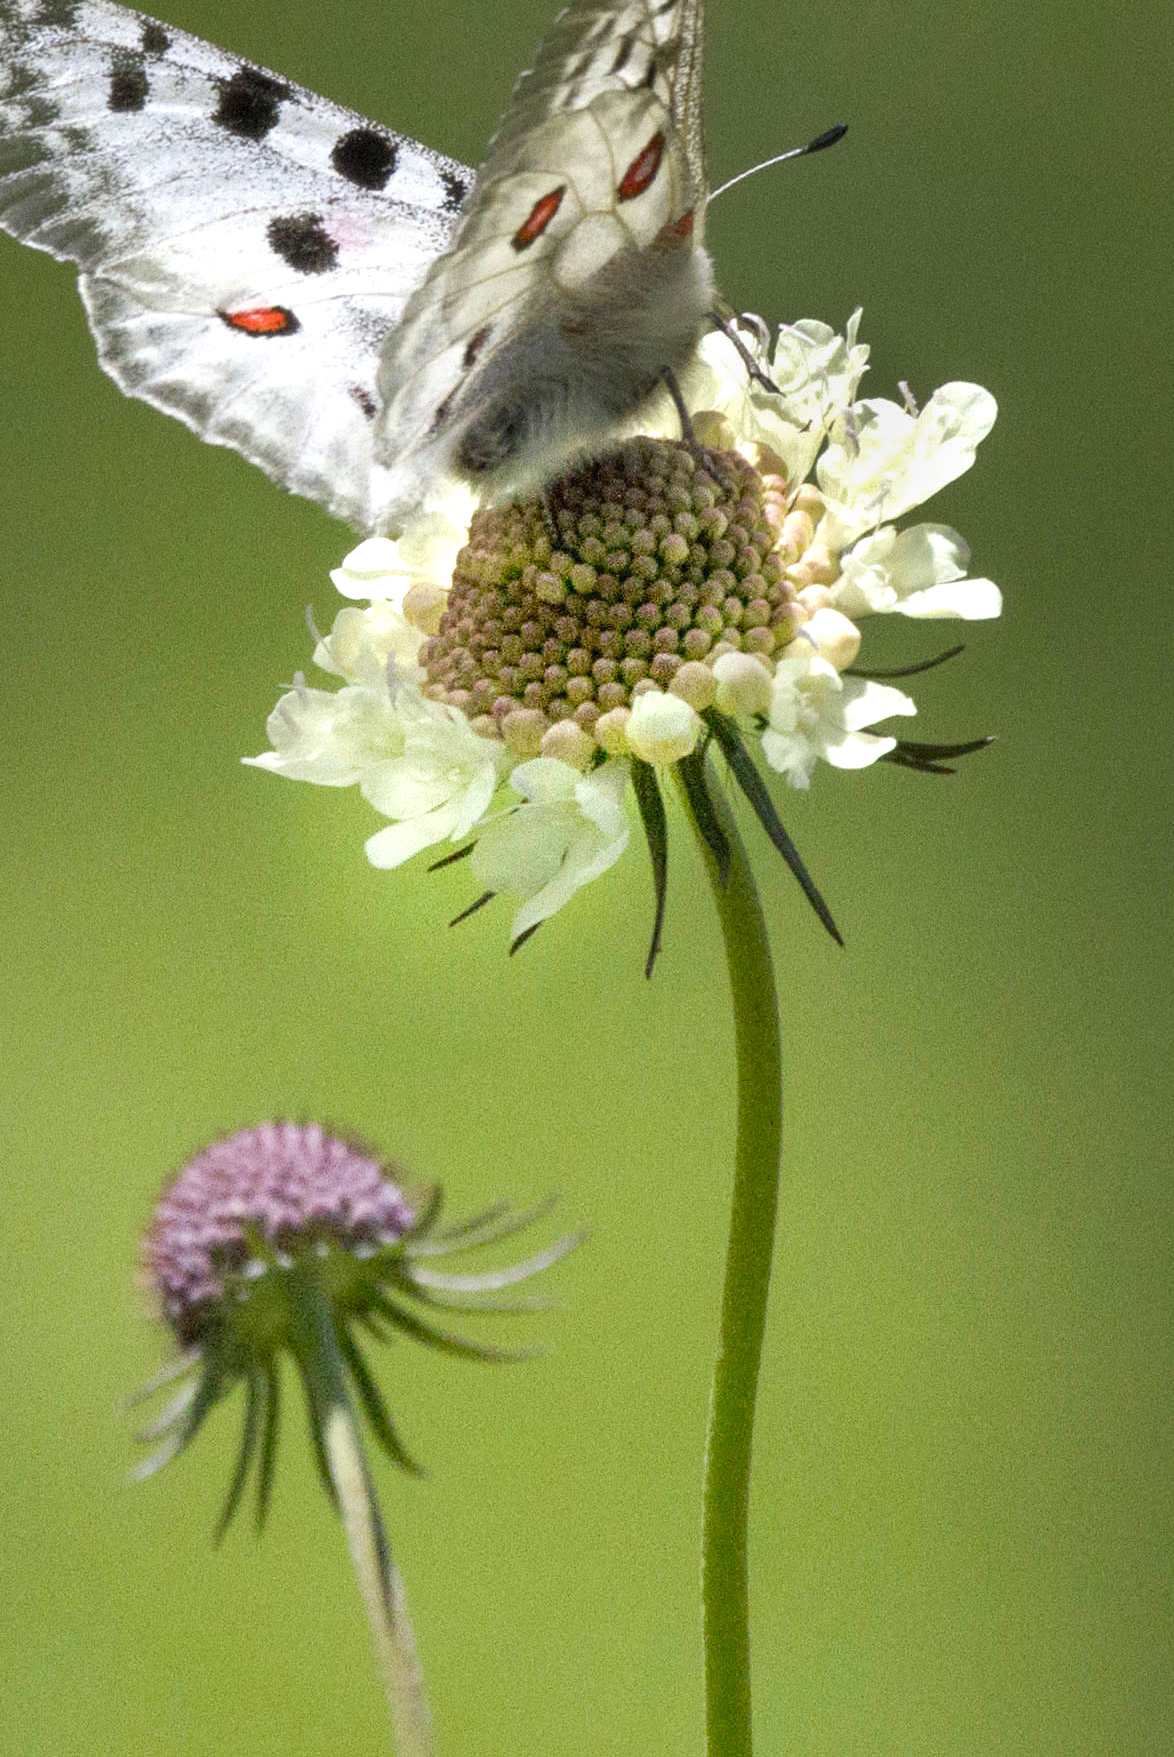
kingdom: Plantae
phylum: Tracheophyta
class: Magnoliopsida
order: Dipsacales
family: Caprifoliaceae
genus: Scabiosa
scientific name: Scabiosa ochroleuca
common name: Cream pincushions
